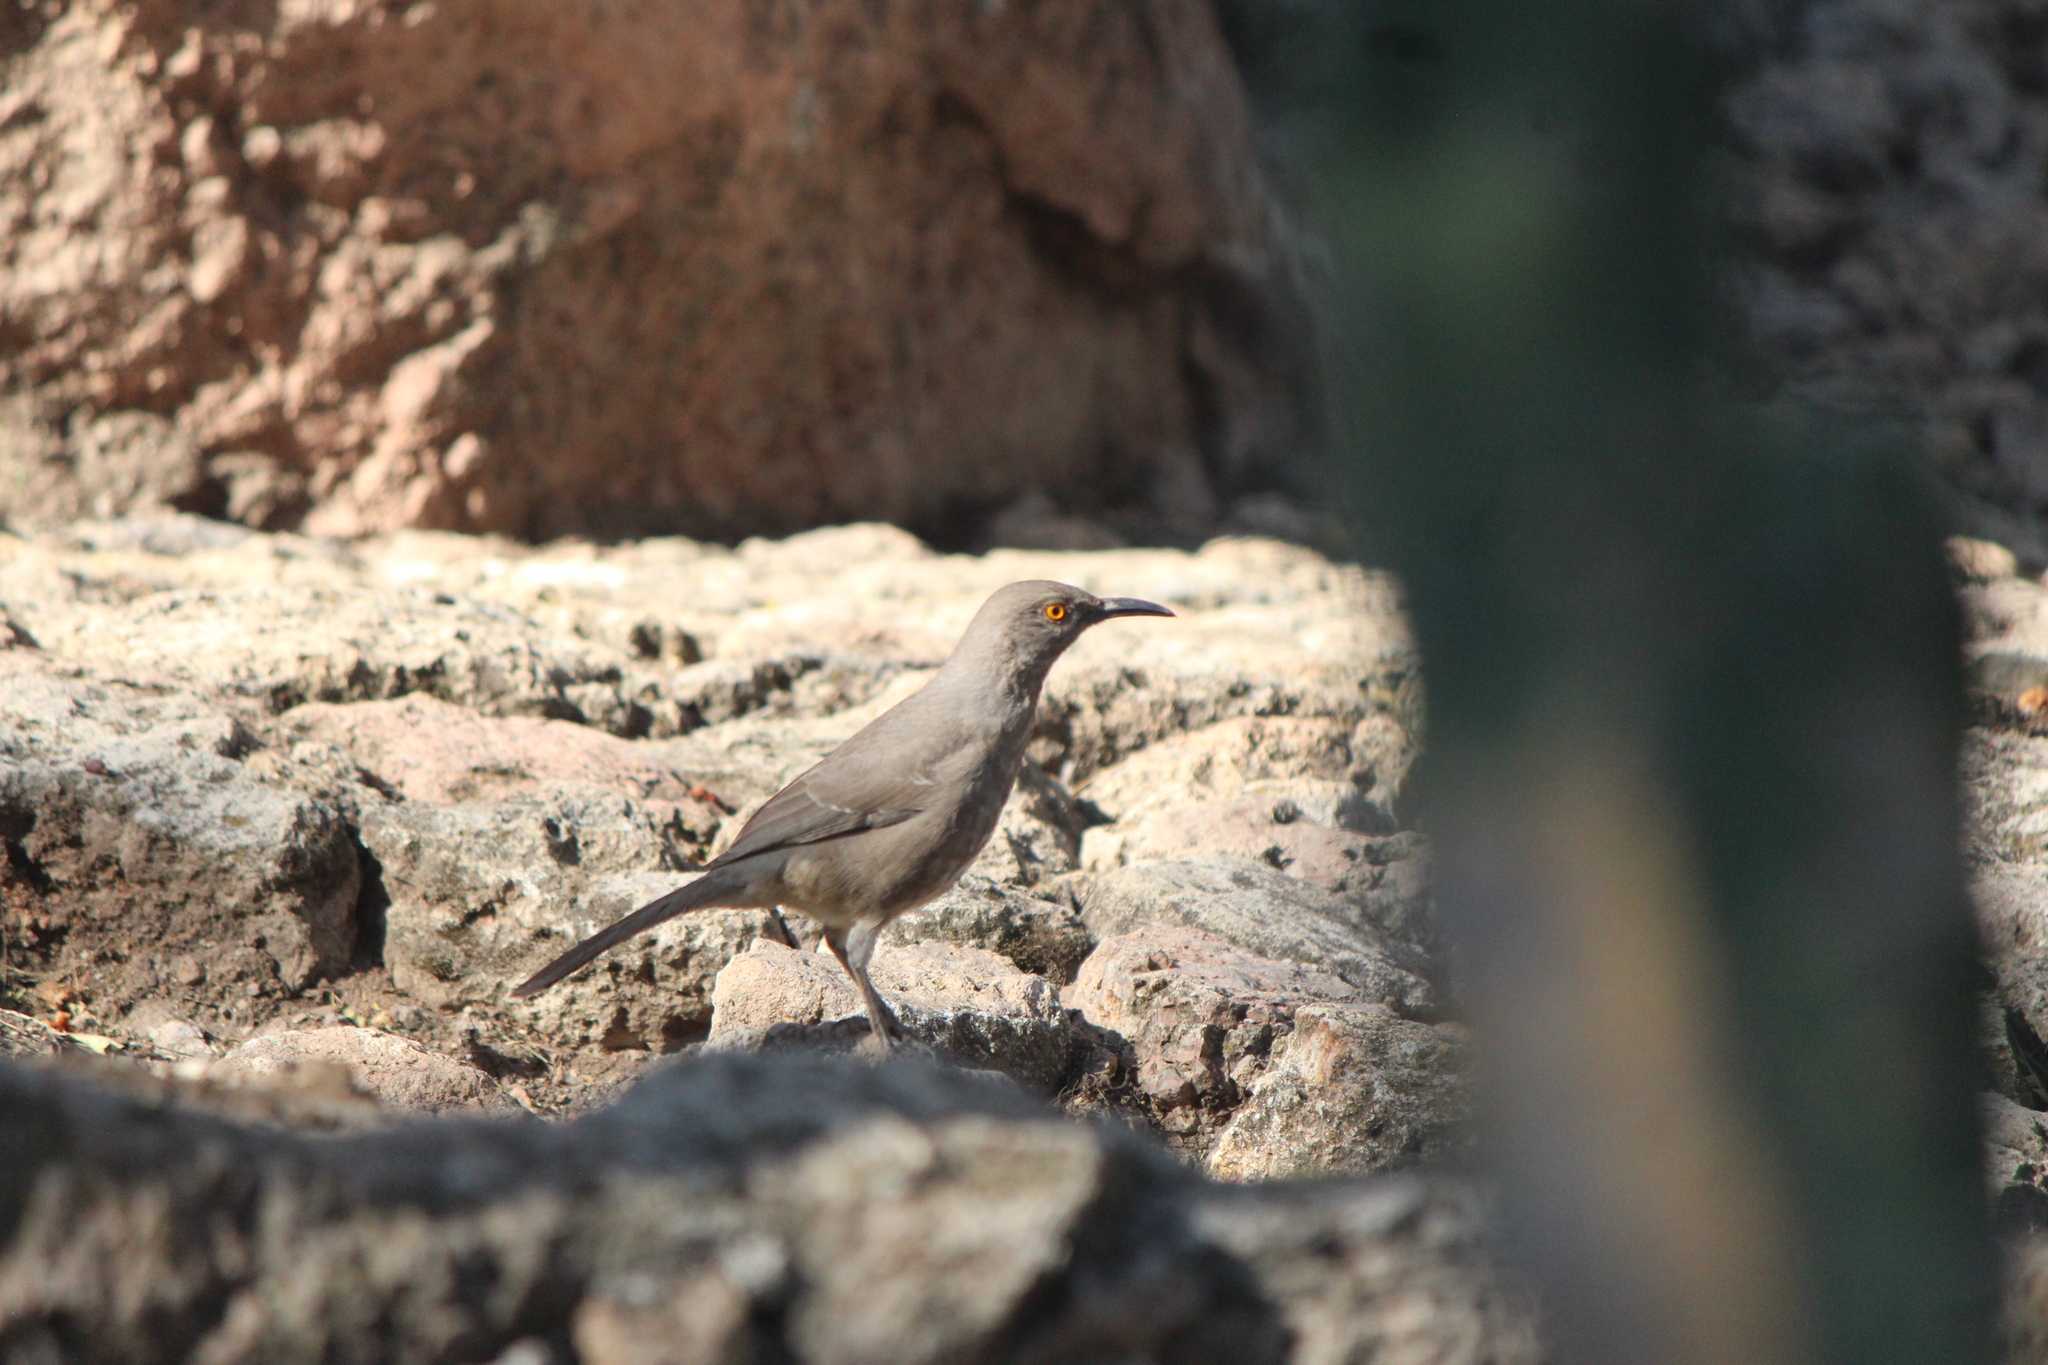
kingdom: Animalia
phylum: Chordata
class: Aves
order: Passeriformes
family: Mimidae
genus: Toxostoma
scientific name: Toxostoma curvirostre
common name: Curve-billed thrasher
